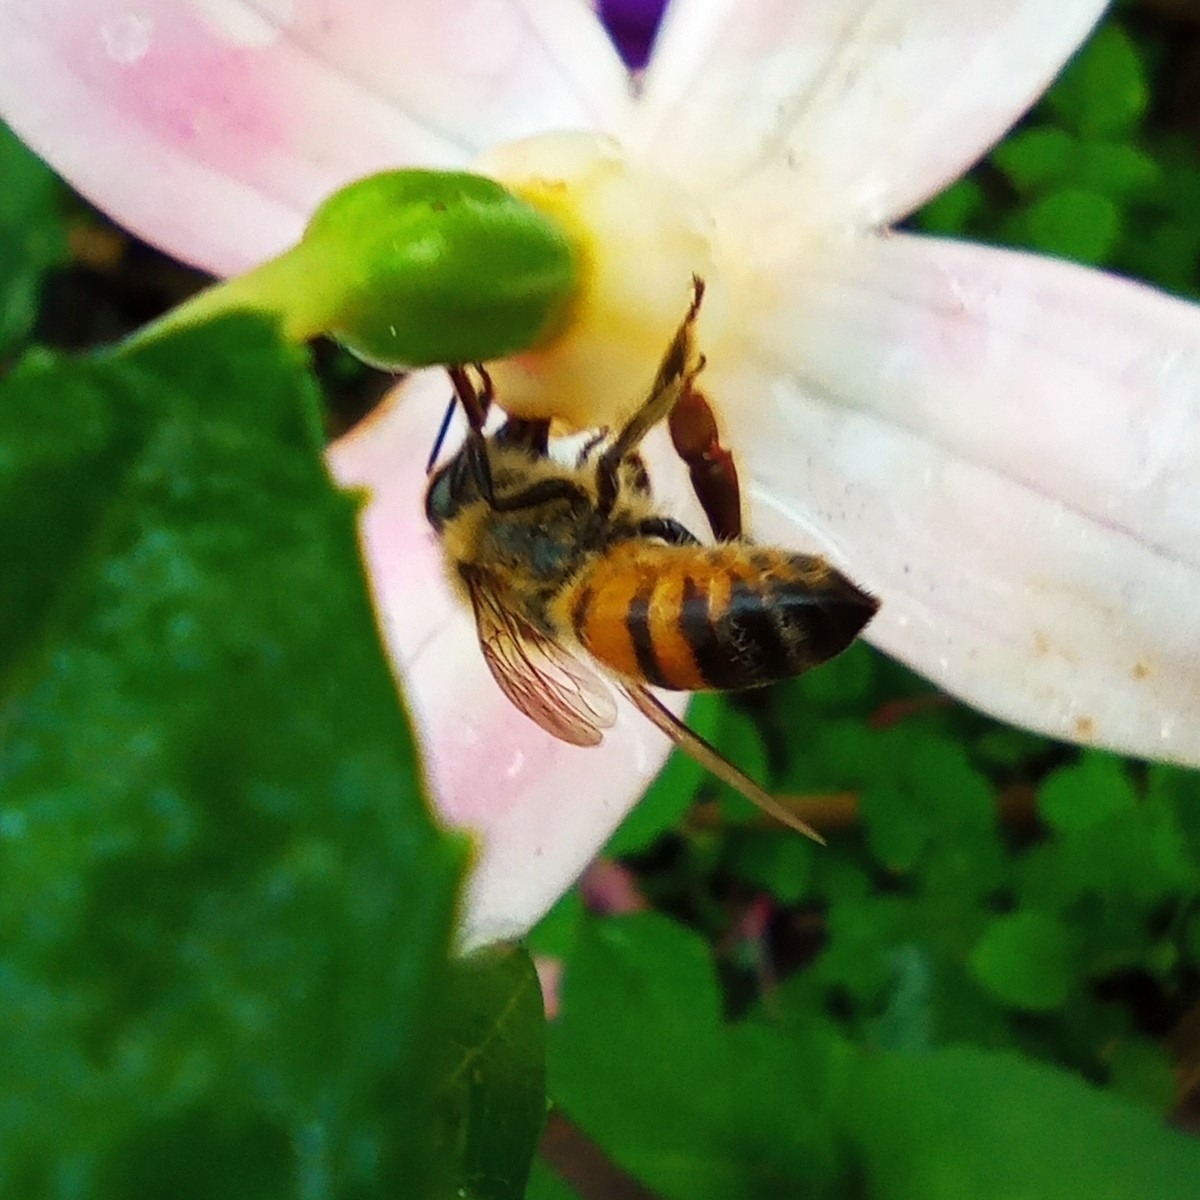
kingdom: Animalia
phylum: Arthropoda
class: Insecta
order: Hymenoptera
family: Apidae
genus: Apis
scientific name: Apis mellifera
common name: Honey bee
